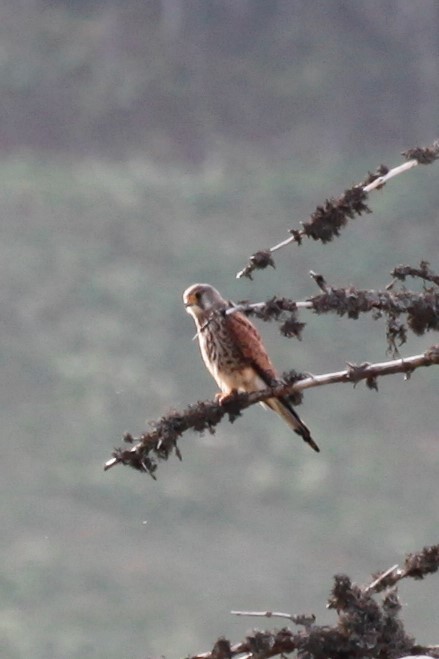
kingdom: Animalia
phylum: Chordata
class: Aves
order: Falconiformes
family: Falconidae
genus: Falco
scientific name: Falco tinnunculus
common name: Common kestrel
